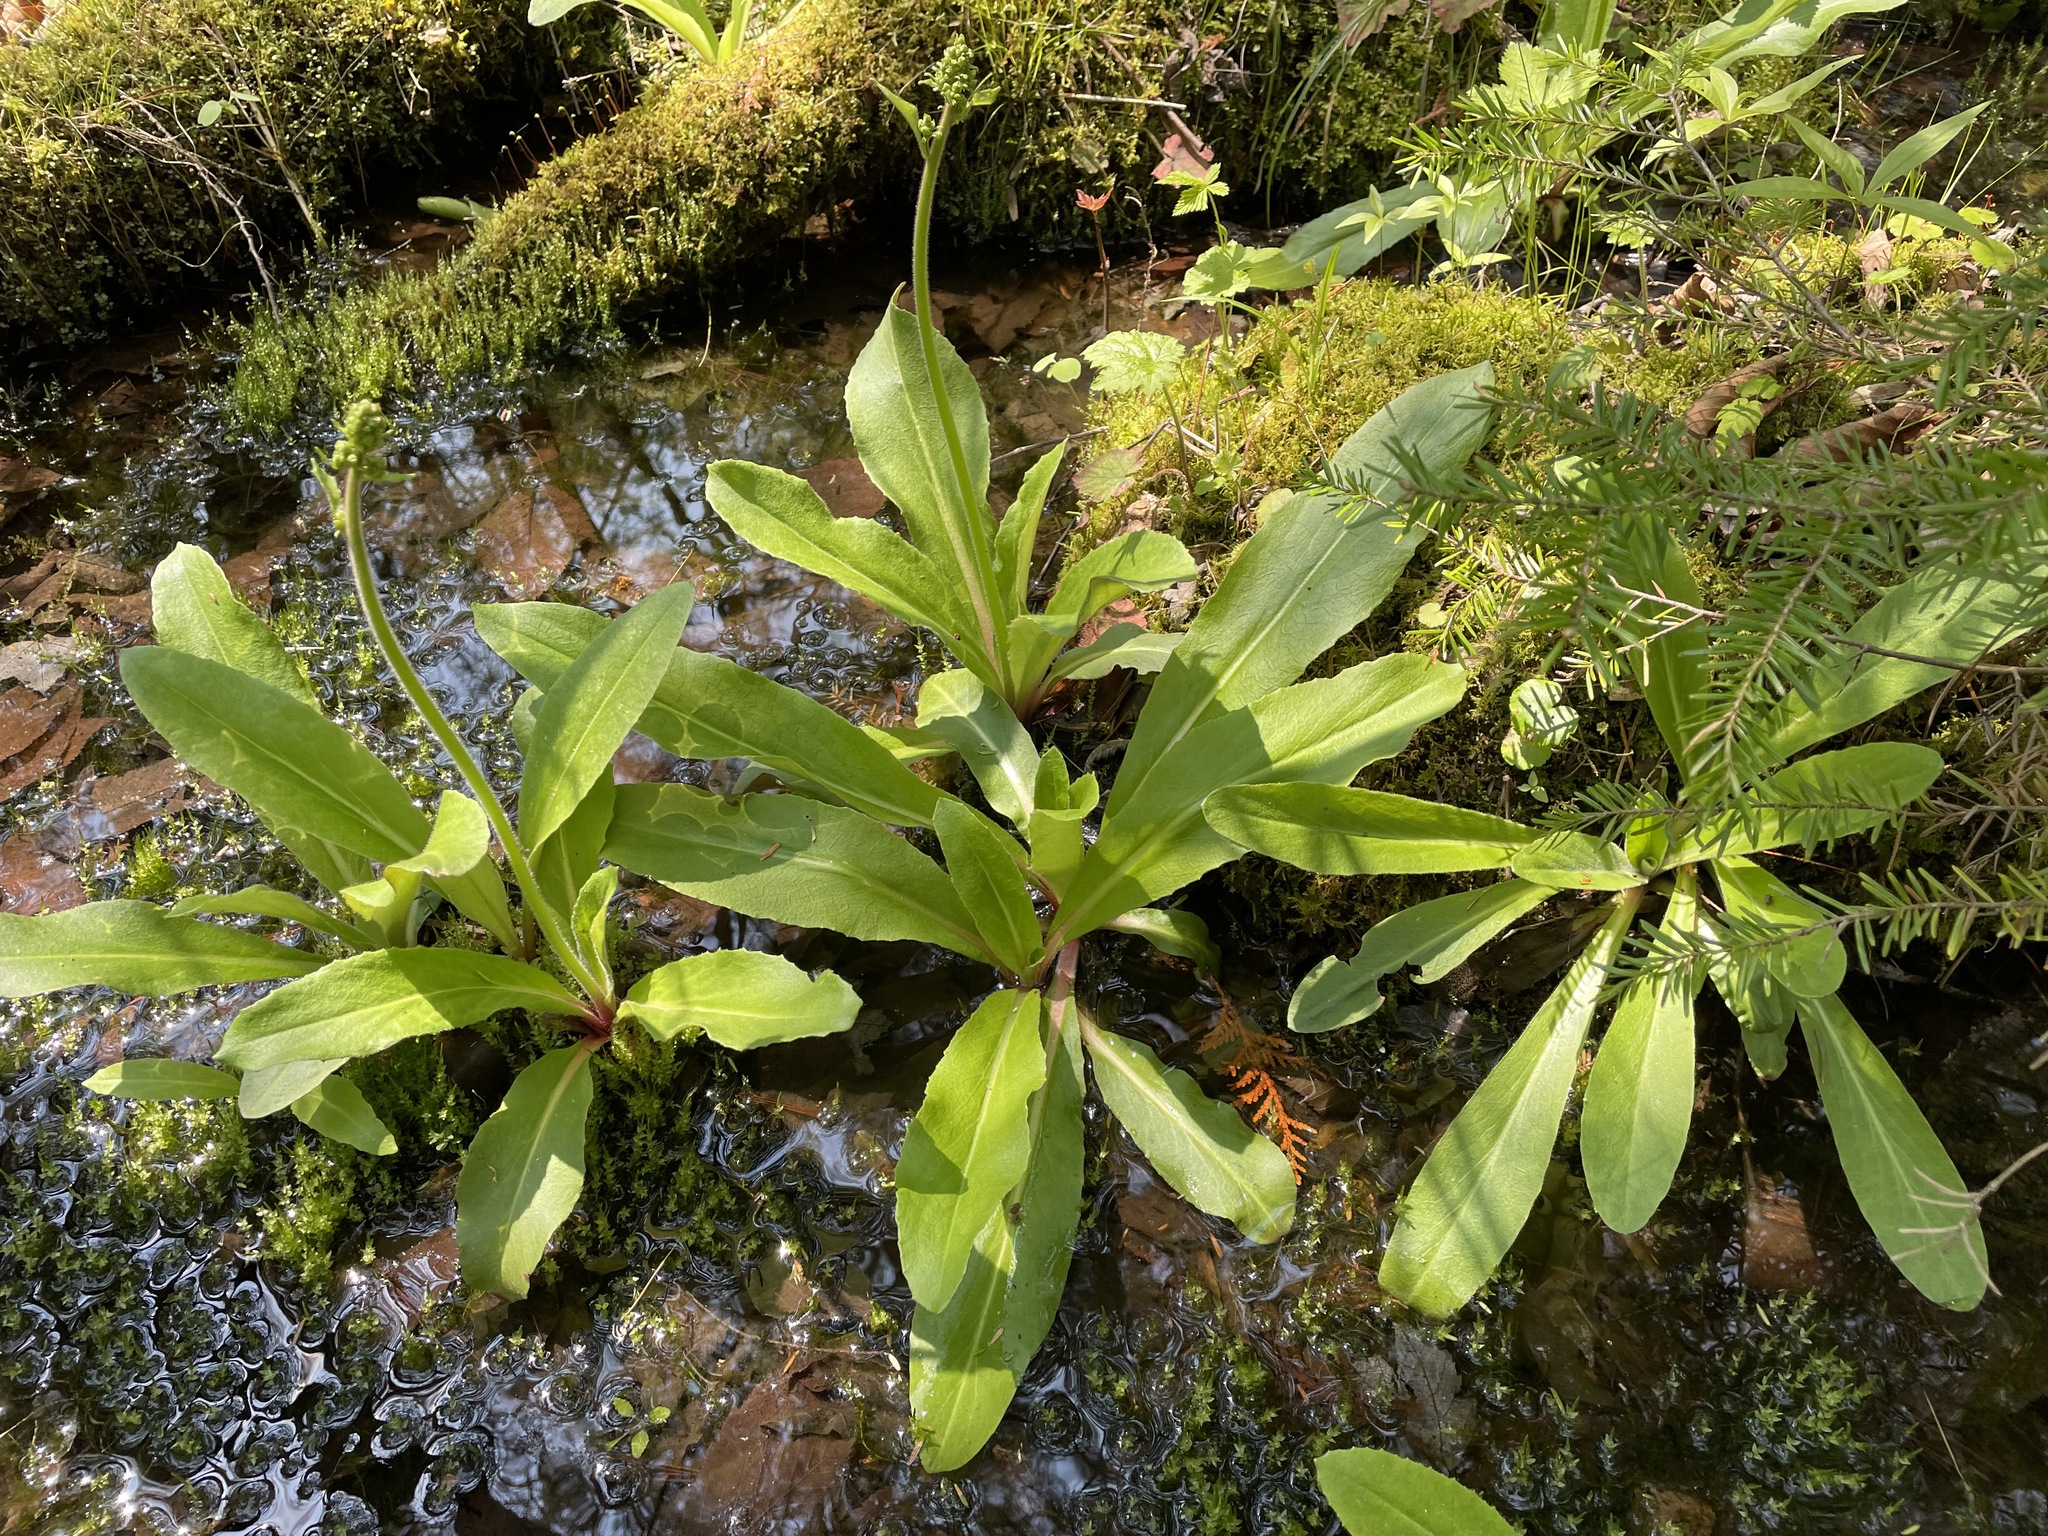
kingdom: Plantae
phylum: Tracheophyta
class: Magnoliopsida
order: Saxifragales
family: Saxifragaceae
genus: Micranthes
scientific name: Micranthes pensylvanica
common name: Marsh saxifrage
